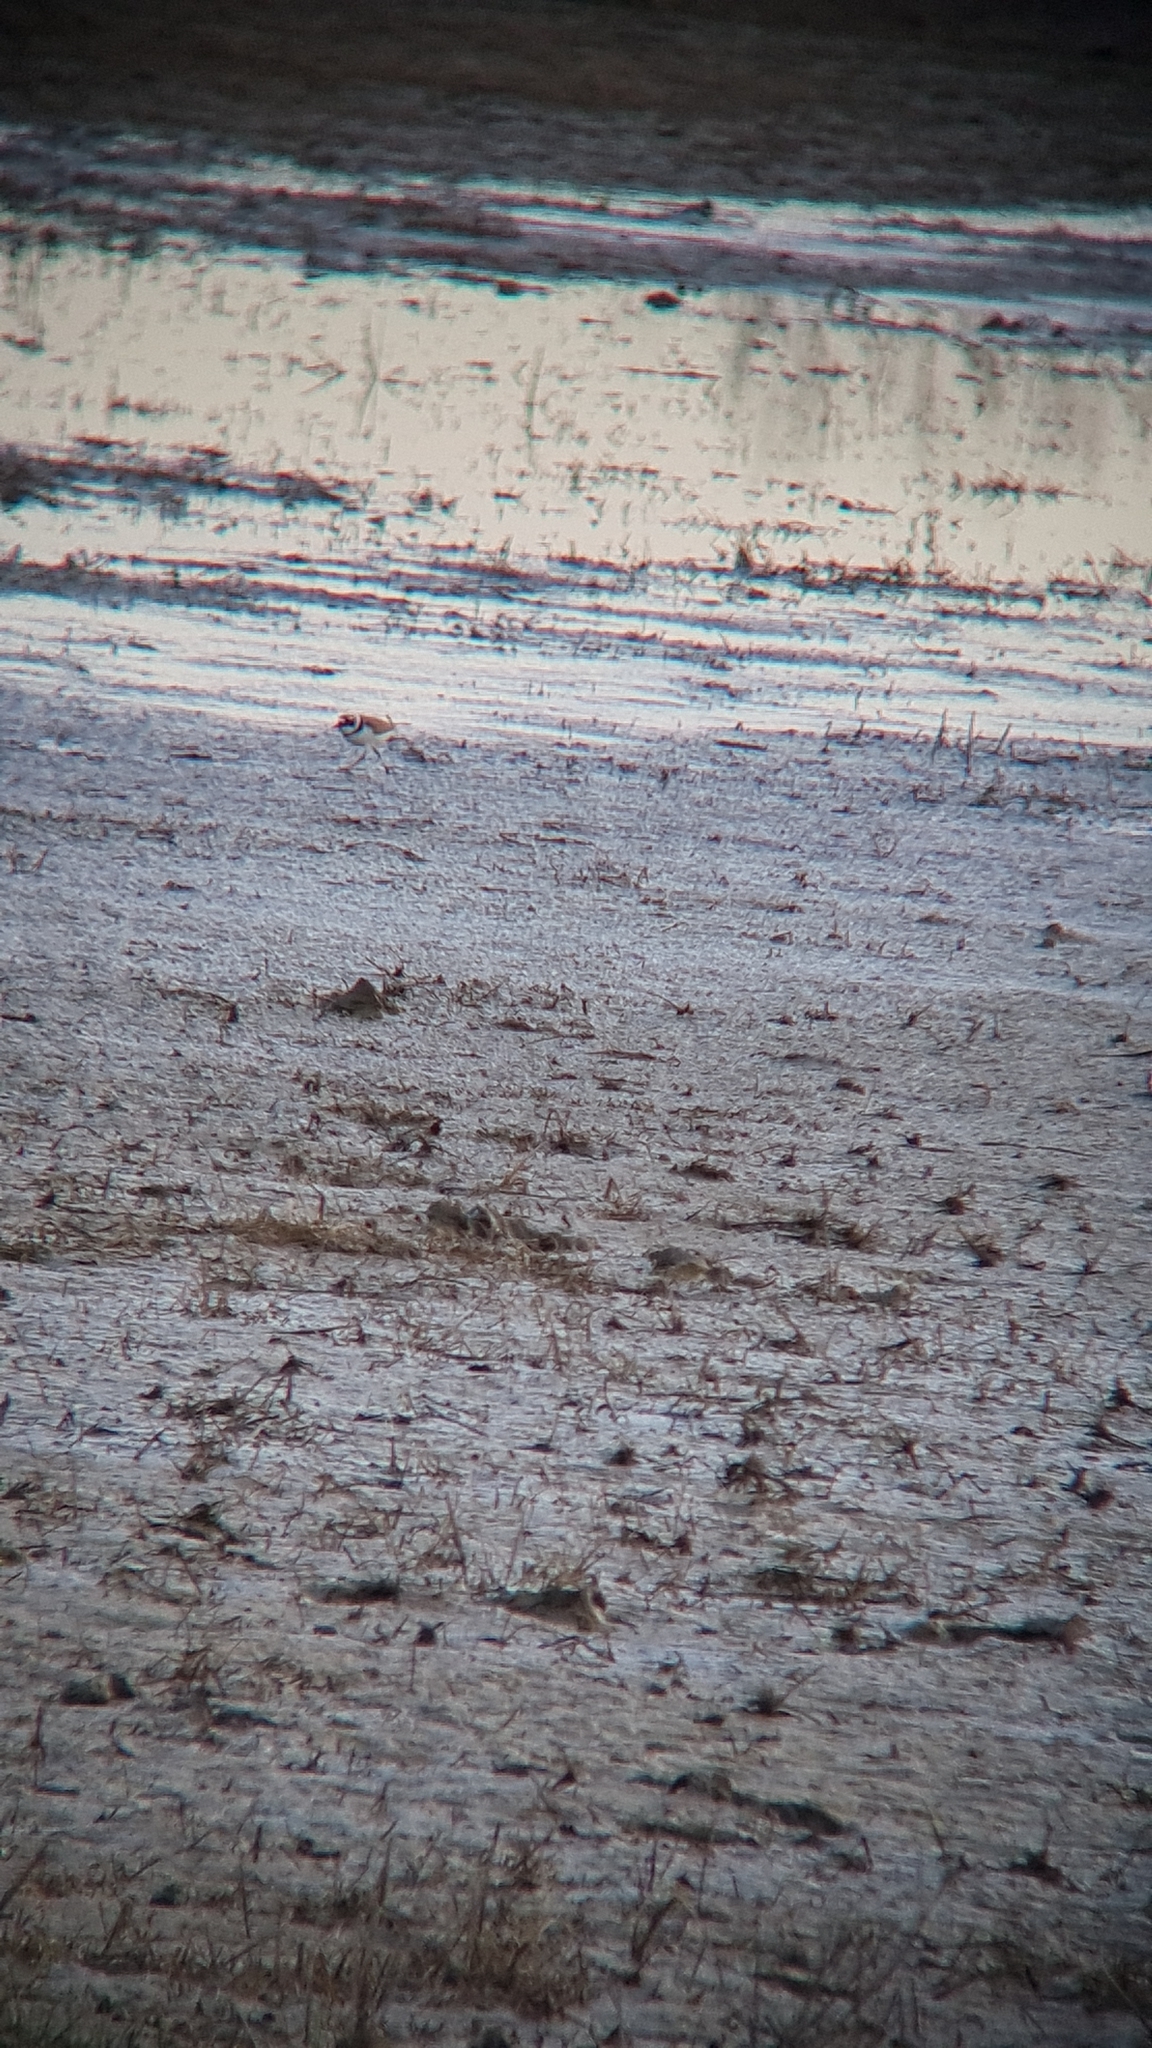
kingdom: Animalia
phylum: Chordata
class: Aves
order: Charadriiformes
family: Charadriidae
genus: Charadrius
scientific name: Charadrius dubius
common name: Little ringed plover
